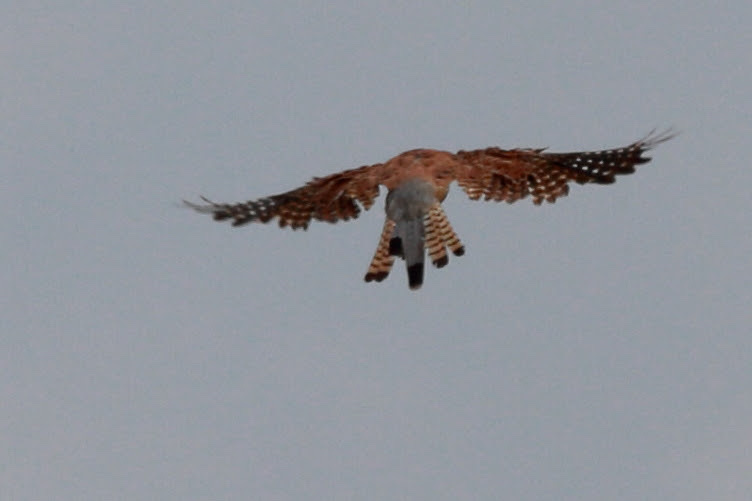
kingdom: Animalia
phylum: Chordata
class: Aves
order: Falconiformes
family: Falconidae
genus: Falco
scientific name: Falco tinnunculus
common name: Common kestrel
